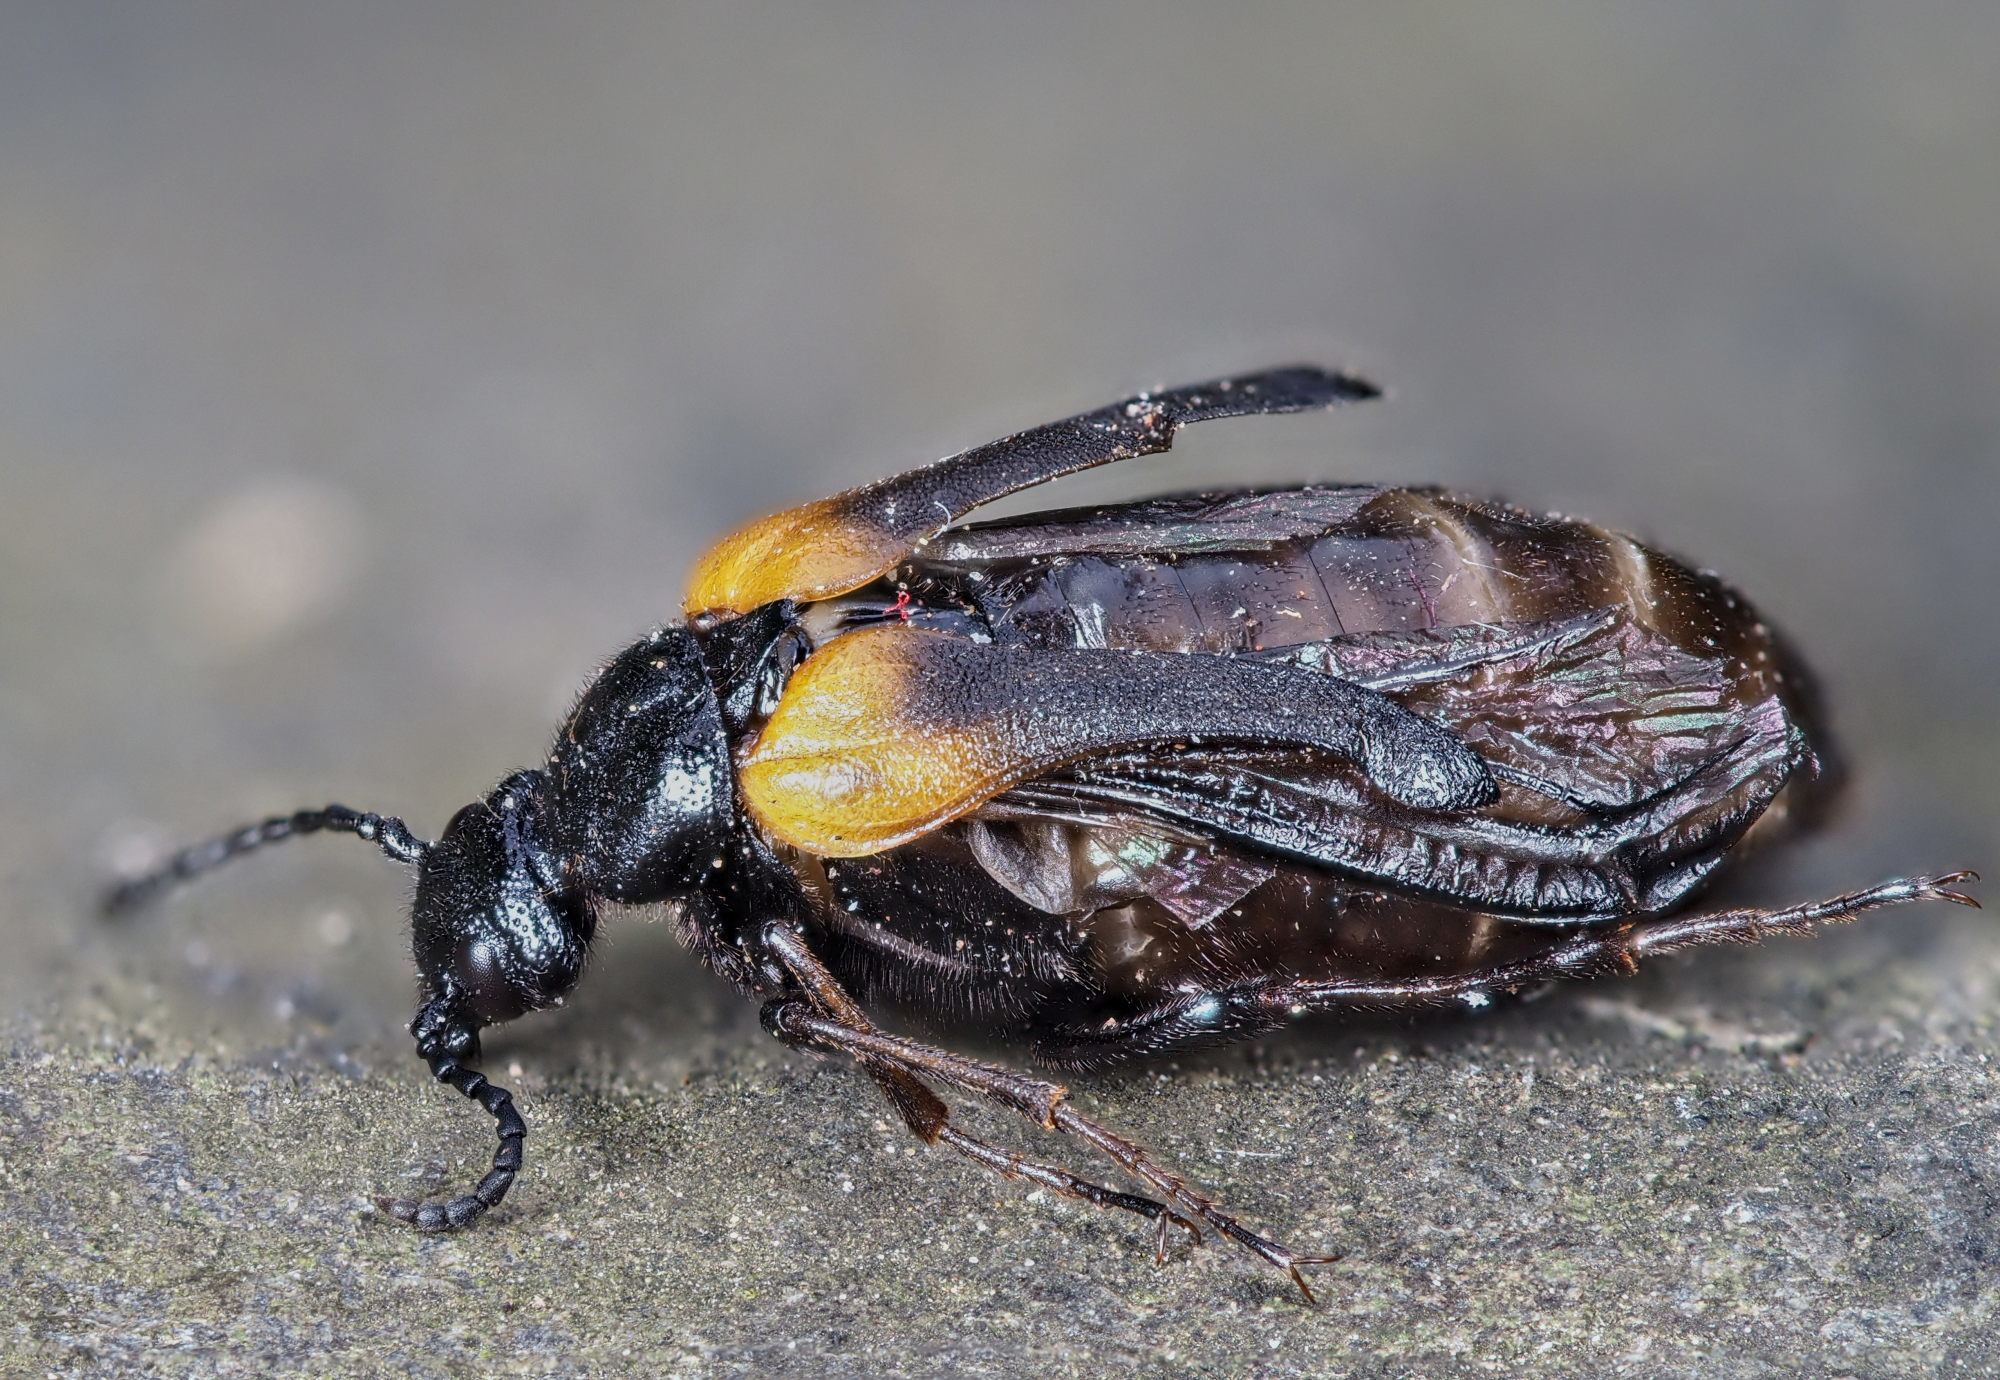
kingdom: Animalia
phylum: Arthropoda
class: Insecta
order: Coleoptera
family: Meloidae
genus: Sitaris
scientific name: Sitaris muralis
